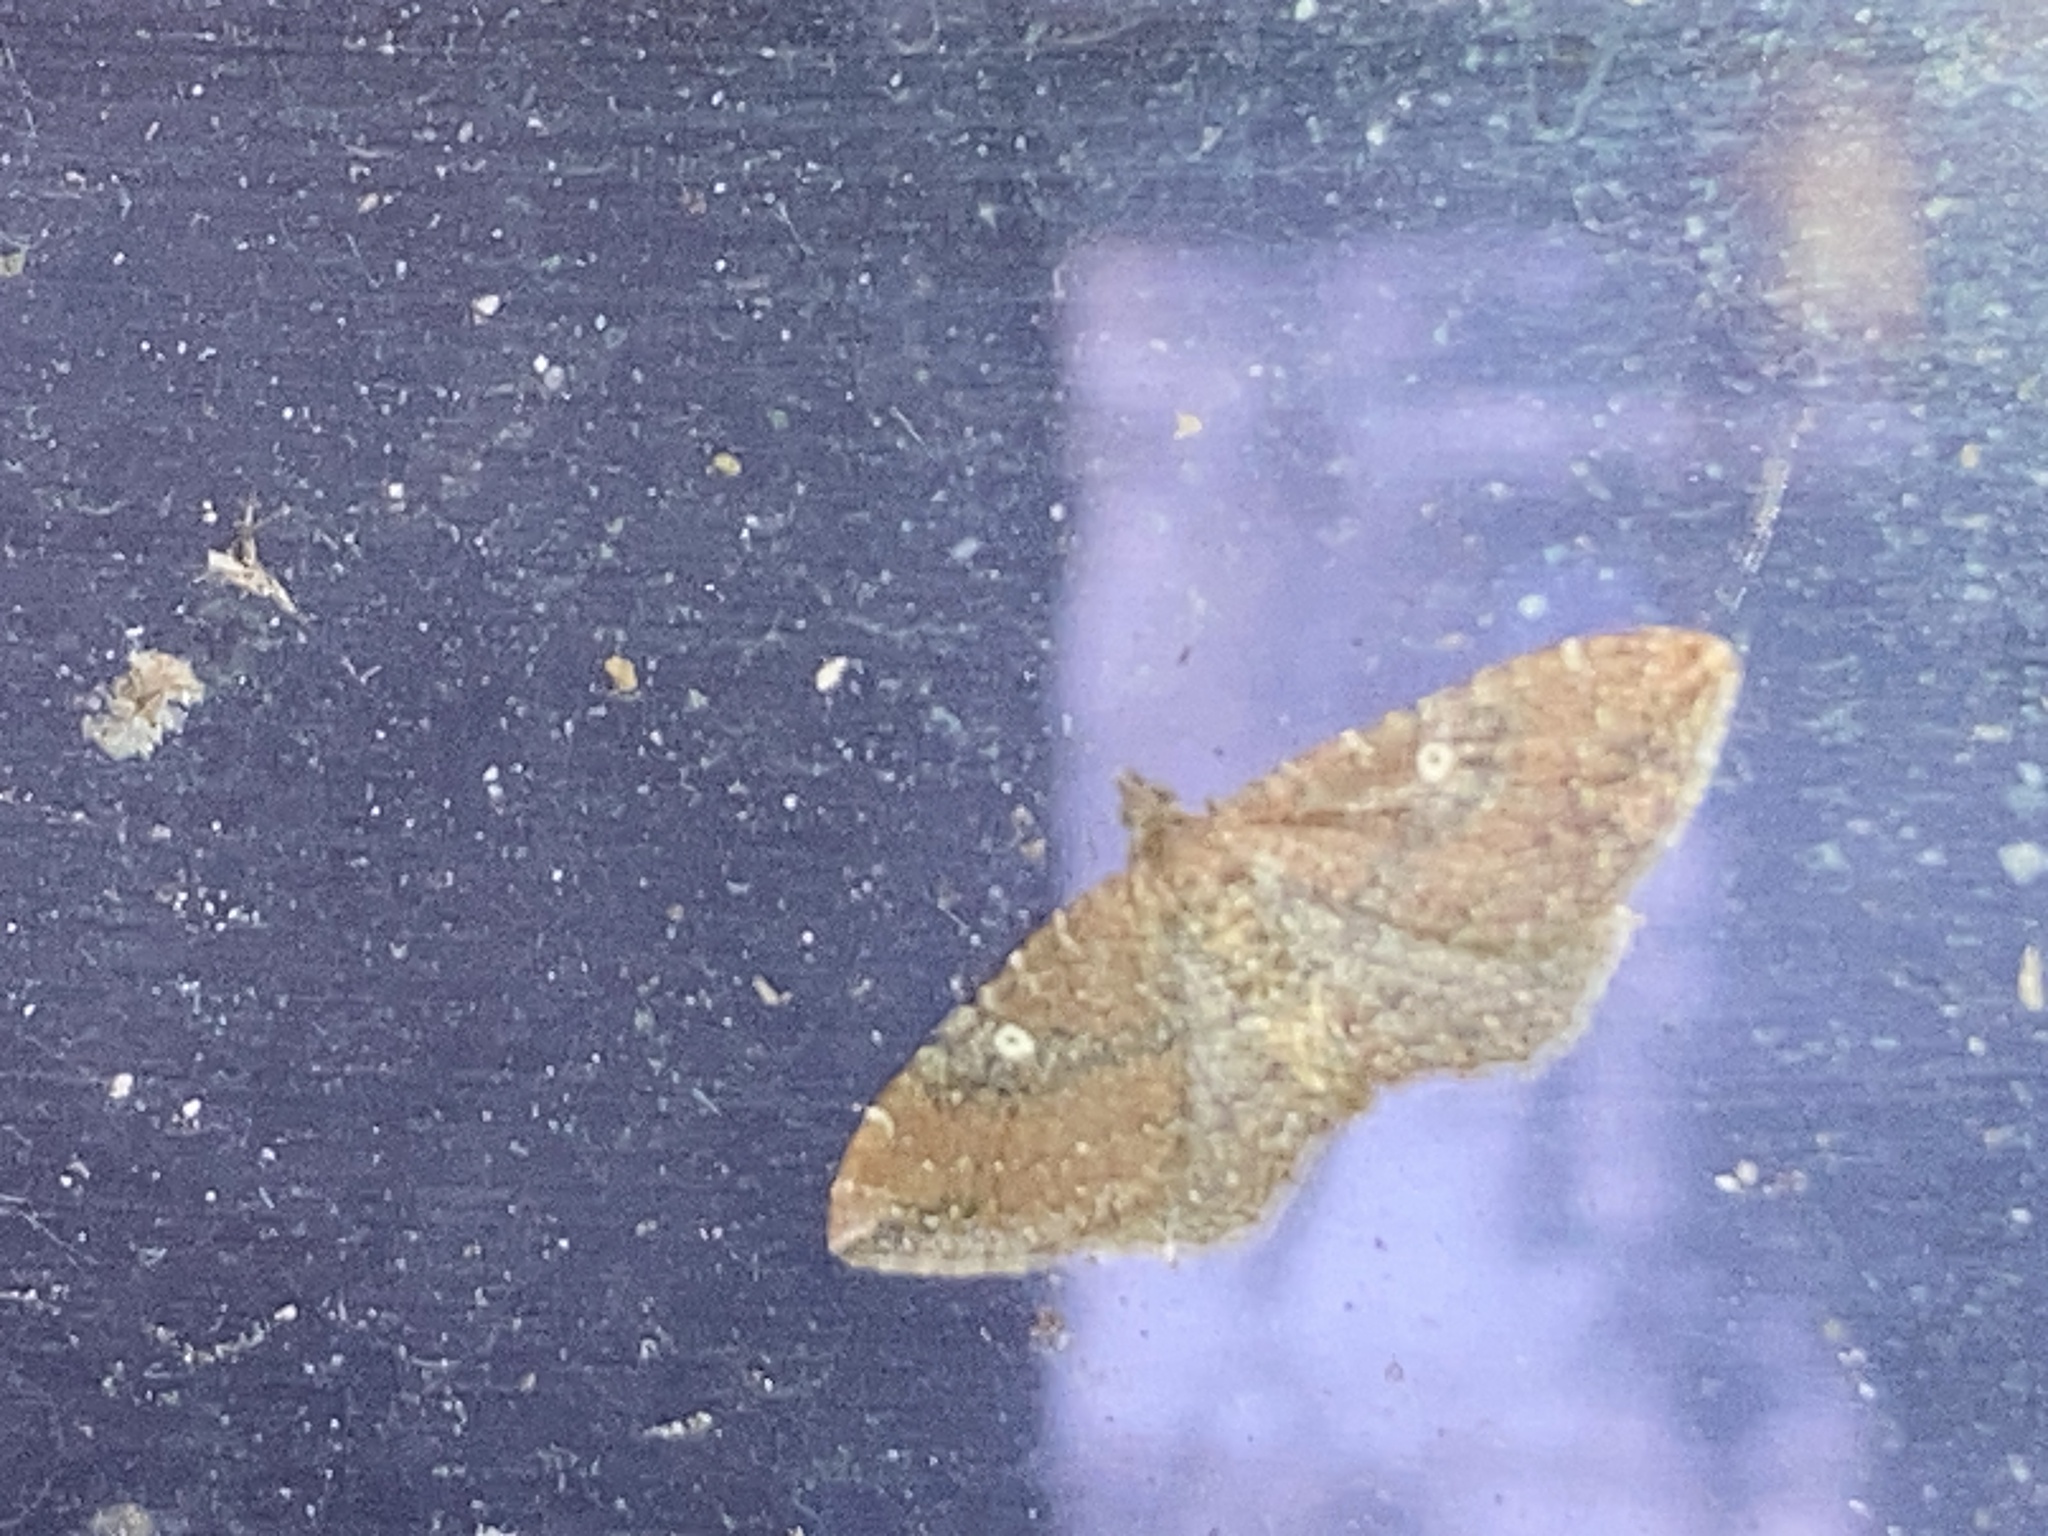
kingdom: Animalia
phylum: Arthropoda
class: Insecta
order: Lepidoptera
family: Geometridae
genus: Orthonama
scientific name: Orthonama obstipata
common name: The gem
